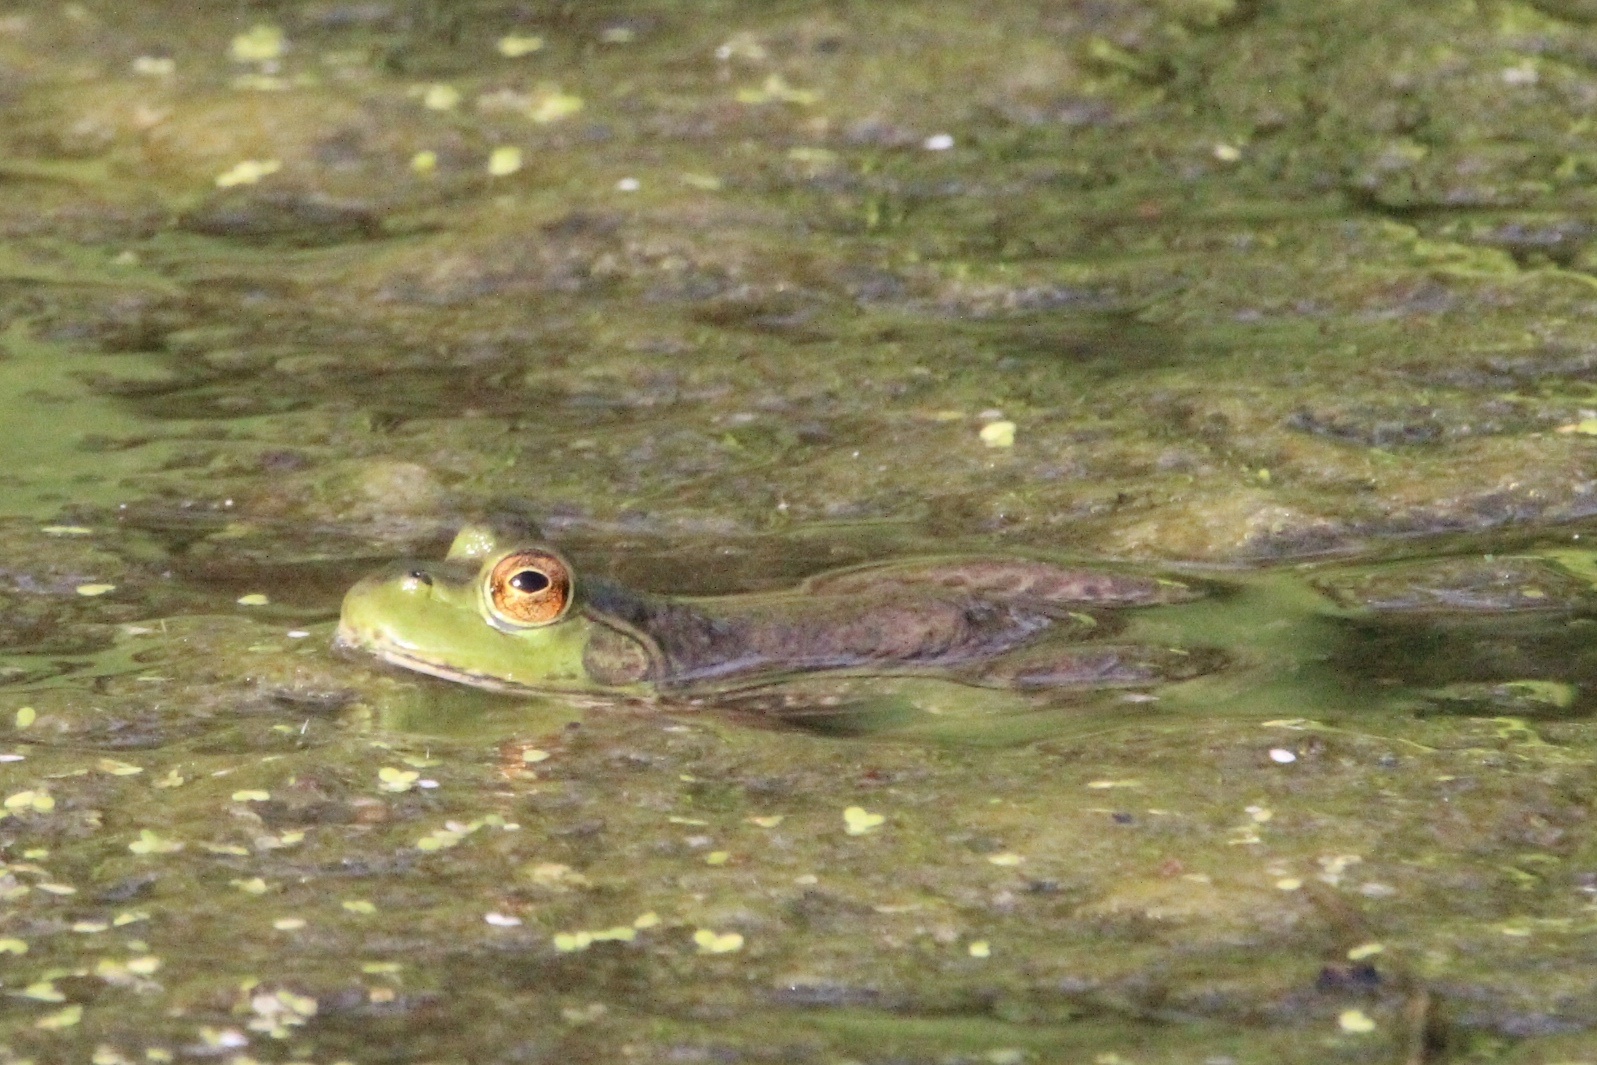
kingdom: Animalia
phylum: Chordata
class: Amphibia
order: Anura
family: Ranidae
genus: Lithobates
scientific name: Lithobates catesbeianus
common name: American bullfrog
